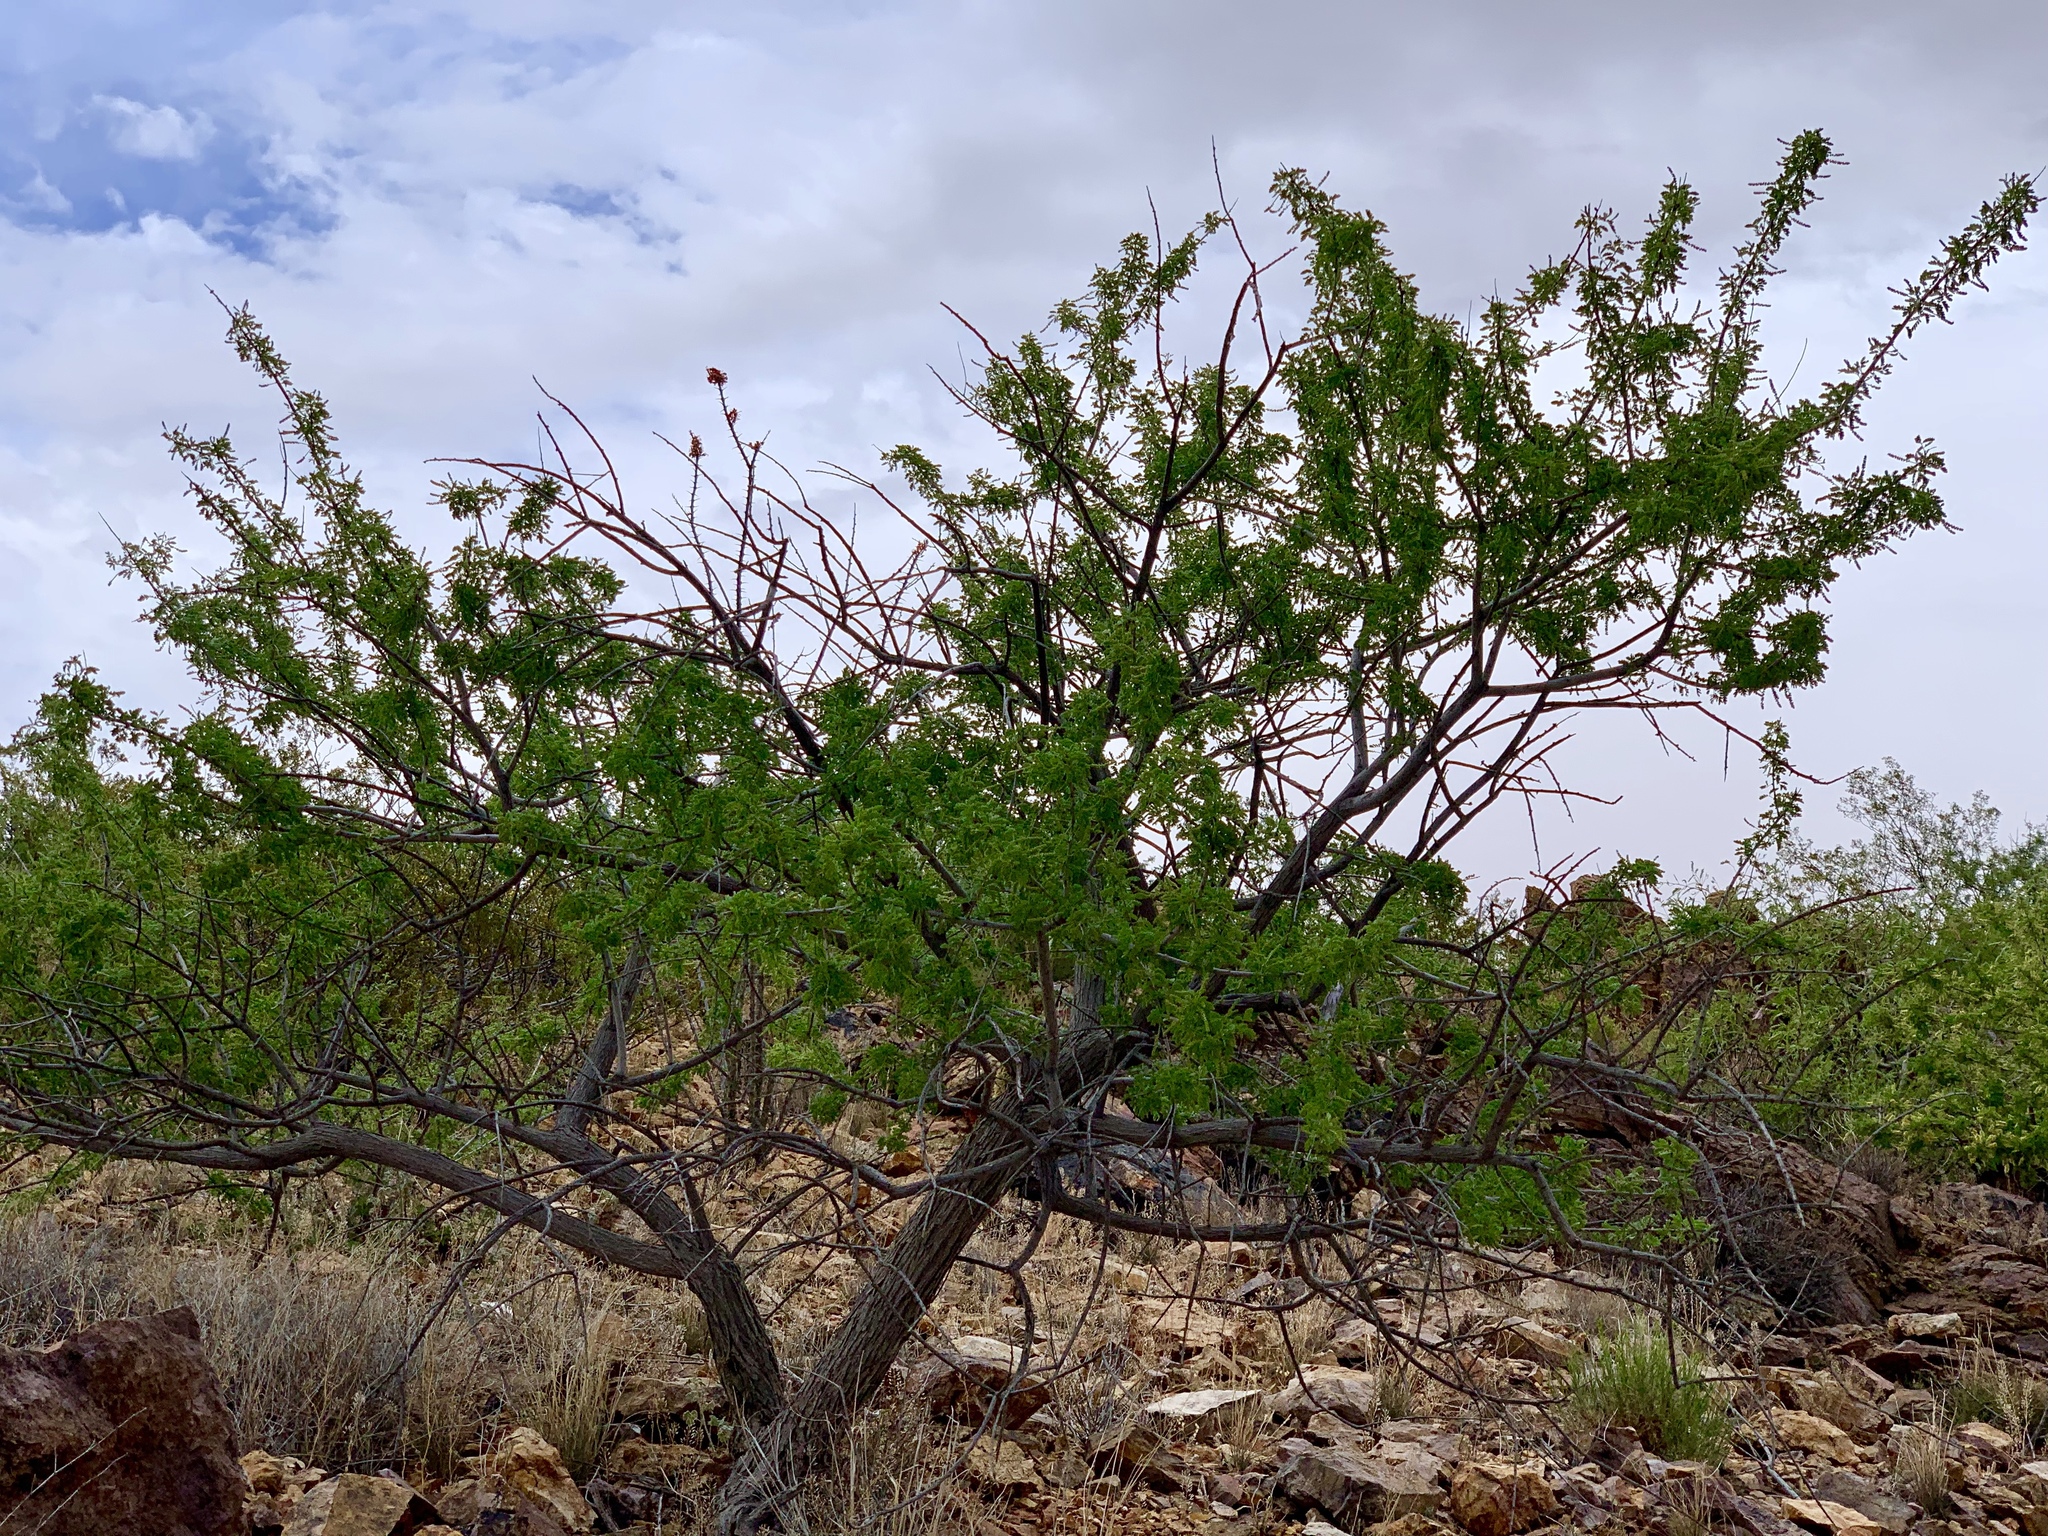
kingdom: Plantae
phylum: Tracheophyta
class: Magnoliopsida
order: Fabales
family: Fabaceae
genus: Senegalia
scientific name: Senegalia greggii
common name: Texas-mimosa
